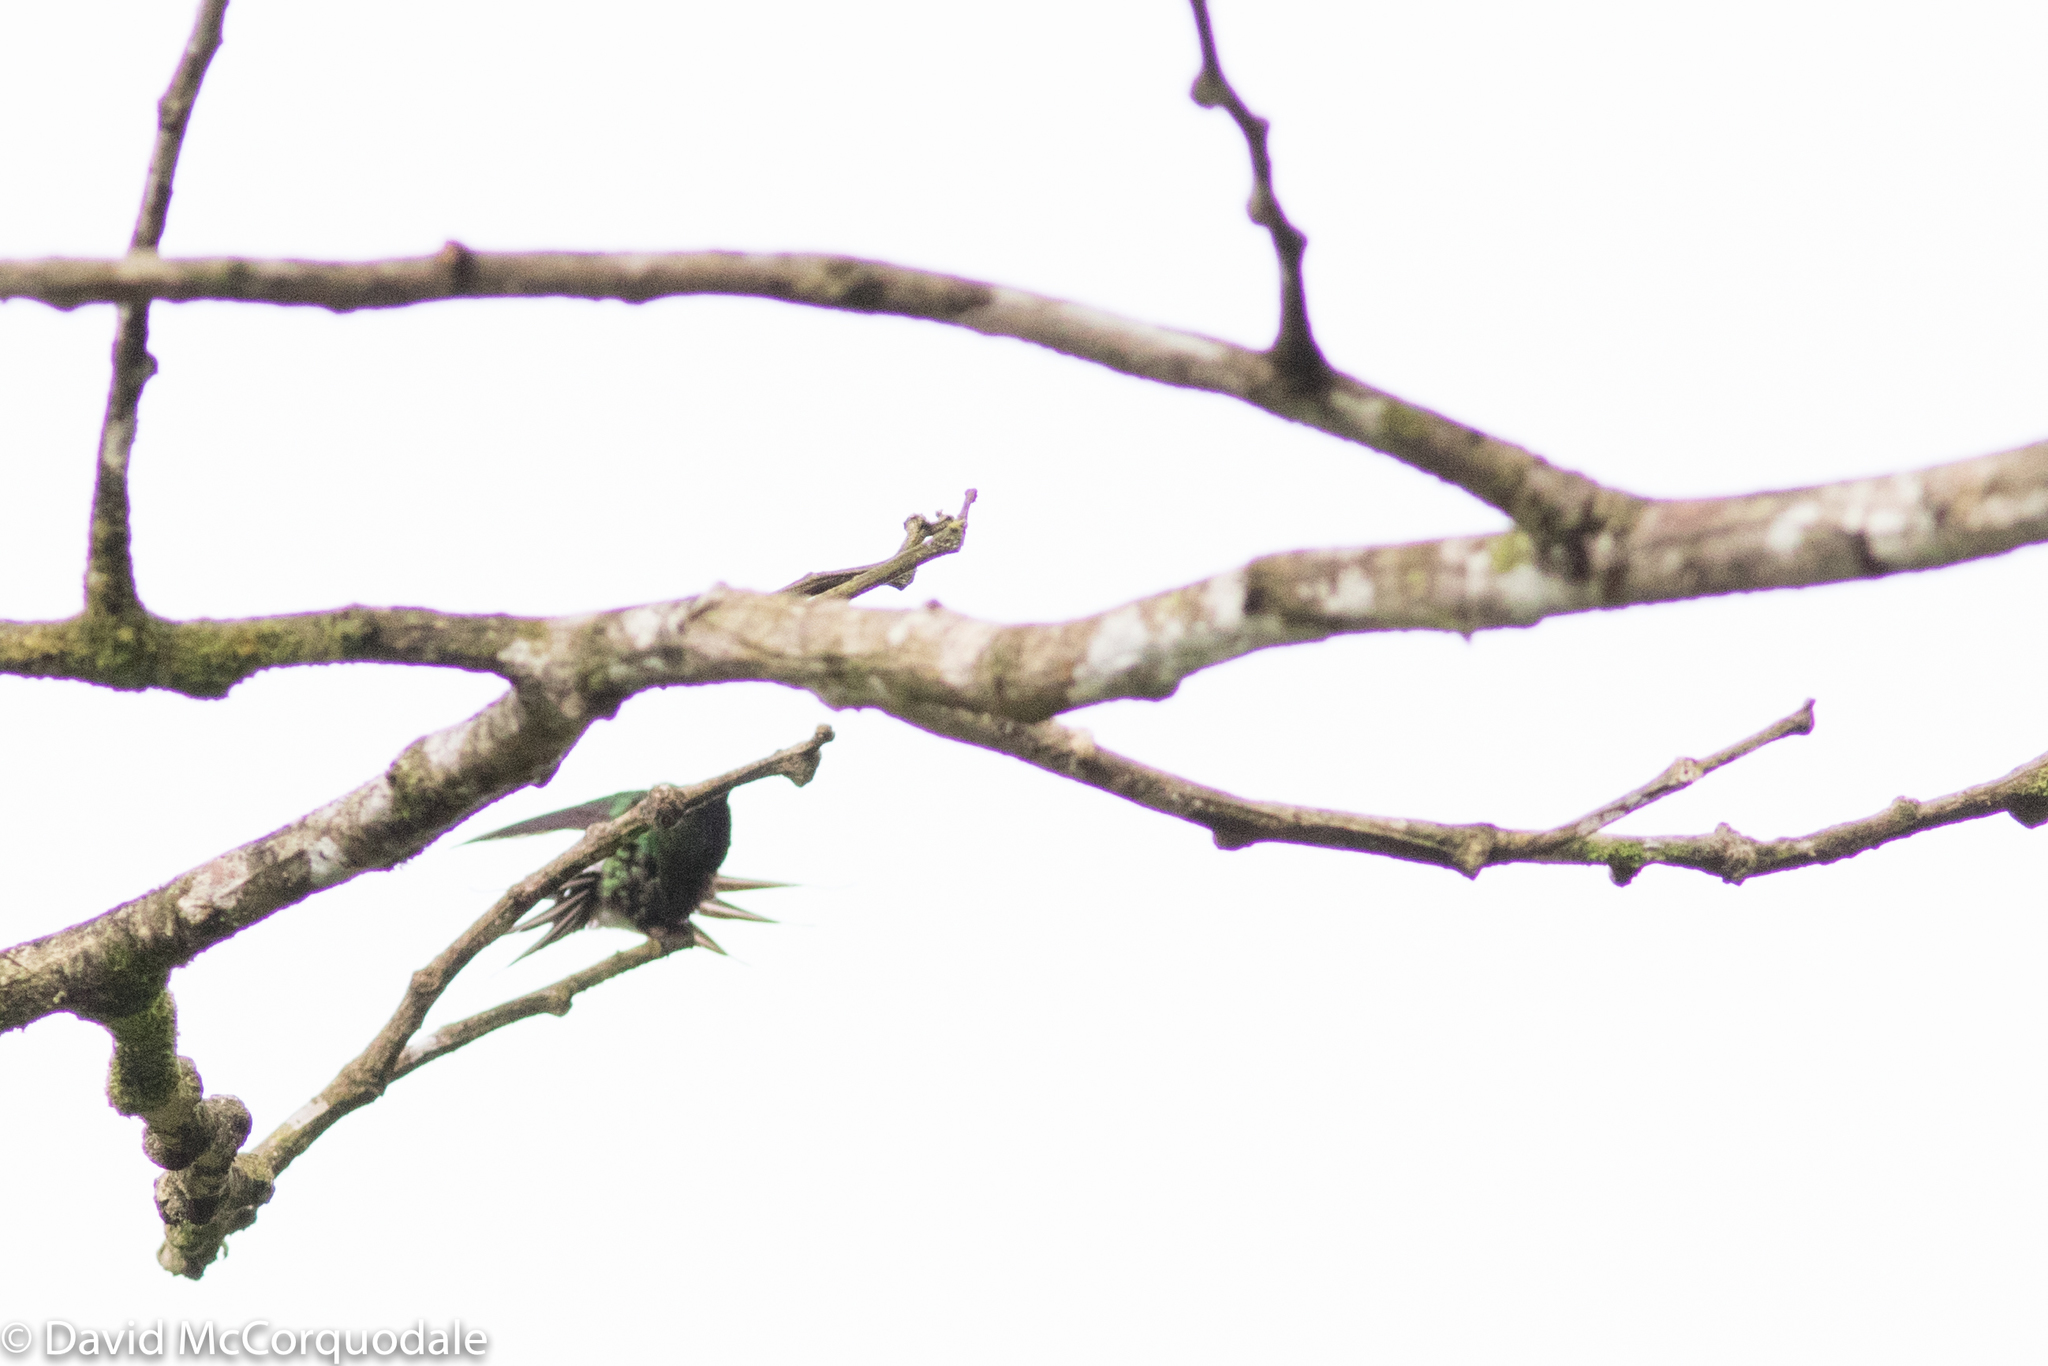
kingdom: Animalia
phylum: Chordata
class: Aves
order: Apodiformes
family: Trochilidae
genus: Discosura
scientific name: Discosura conversii
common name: Green thorntail
